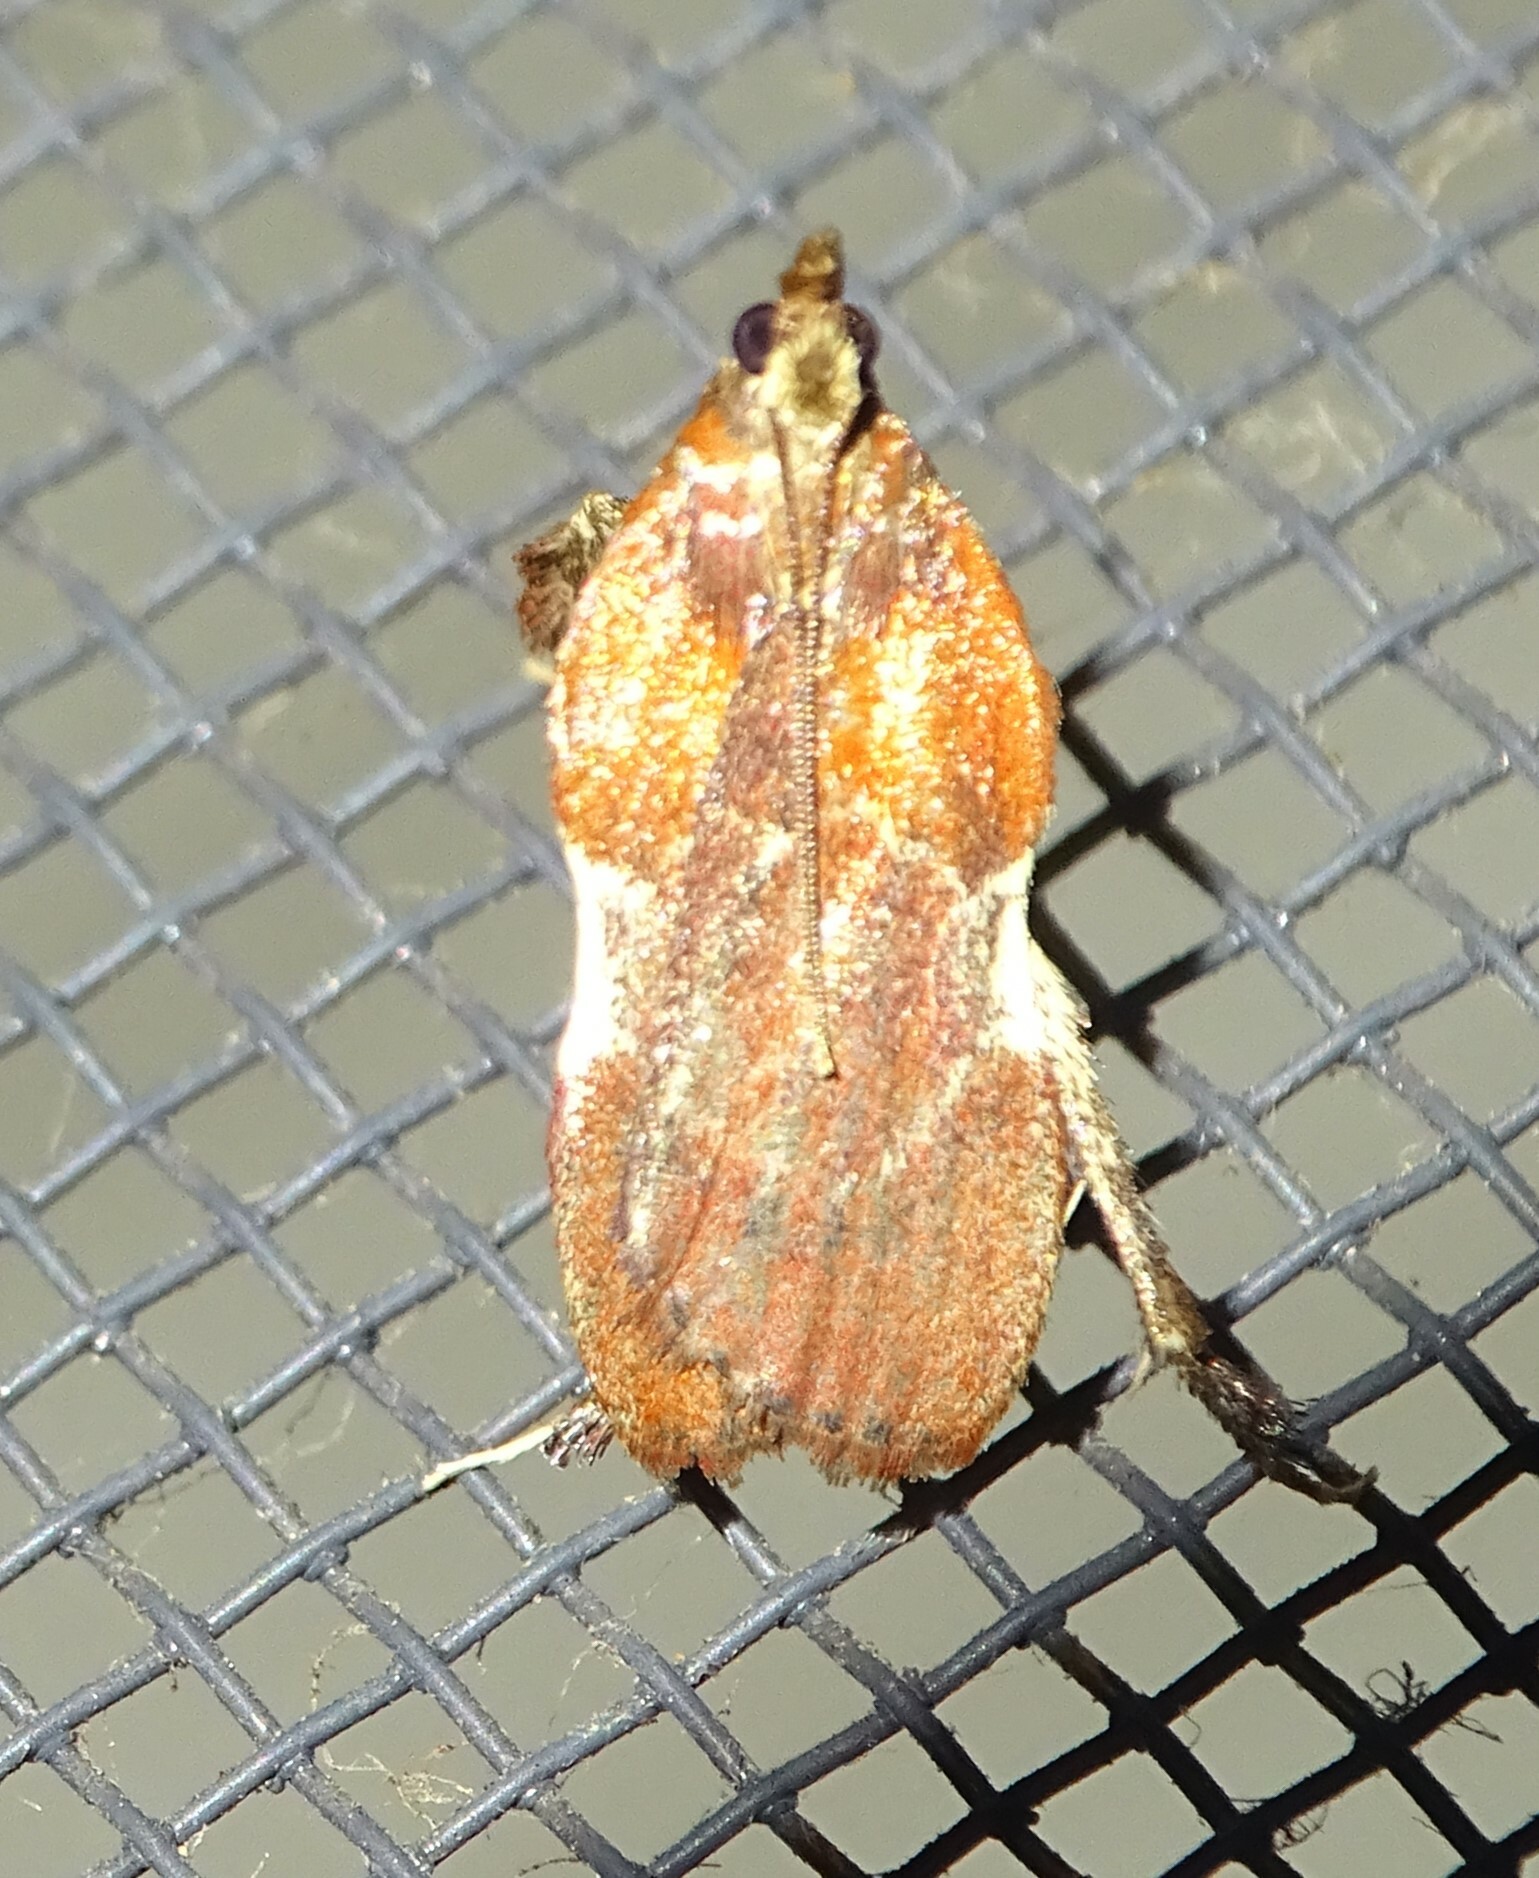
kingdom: Animalia
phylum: Arthropoda
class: Insecta
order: Lepidoptera
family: Pyralidae
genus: Galasa
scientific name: Galasa nigrinodis
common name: Boxwood leaftier moth
